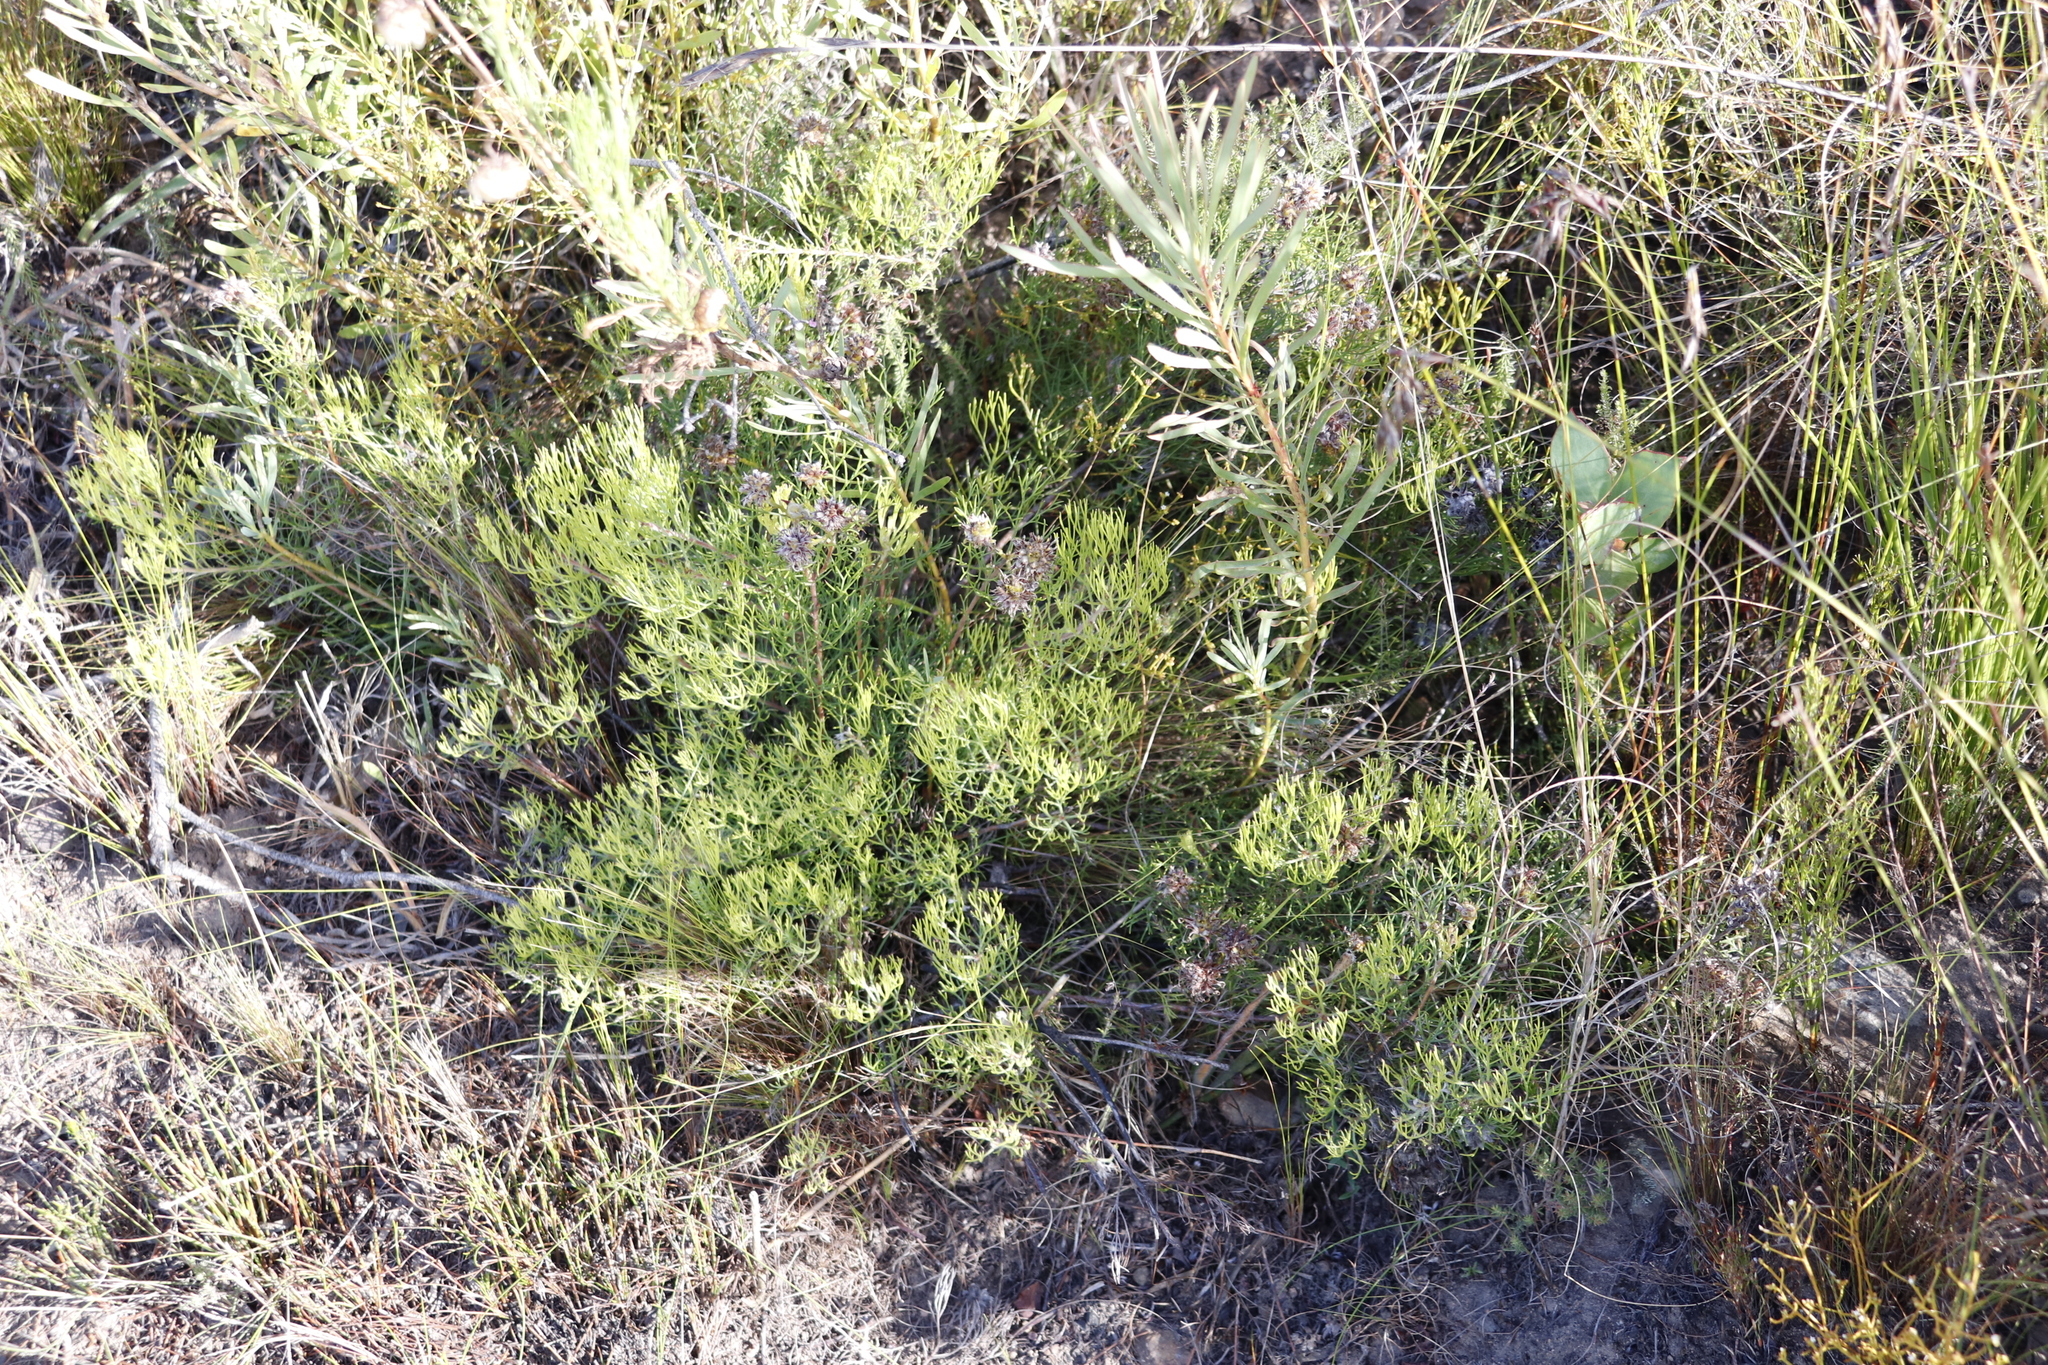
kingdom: Plantae
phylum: Tracheophyta
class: Magnoliopsida
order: Proteales
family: Proteaceae
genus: Serruria
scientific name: Serruria fasciflora
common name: Common pin spiderhead
